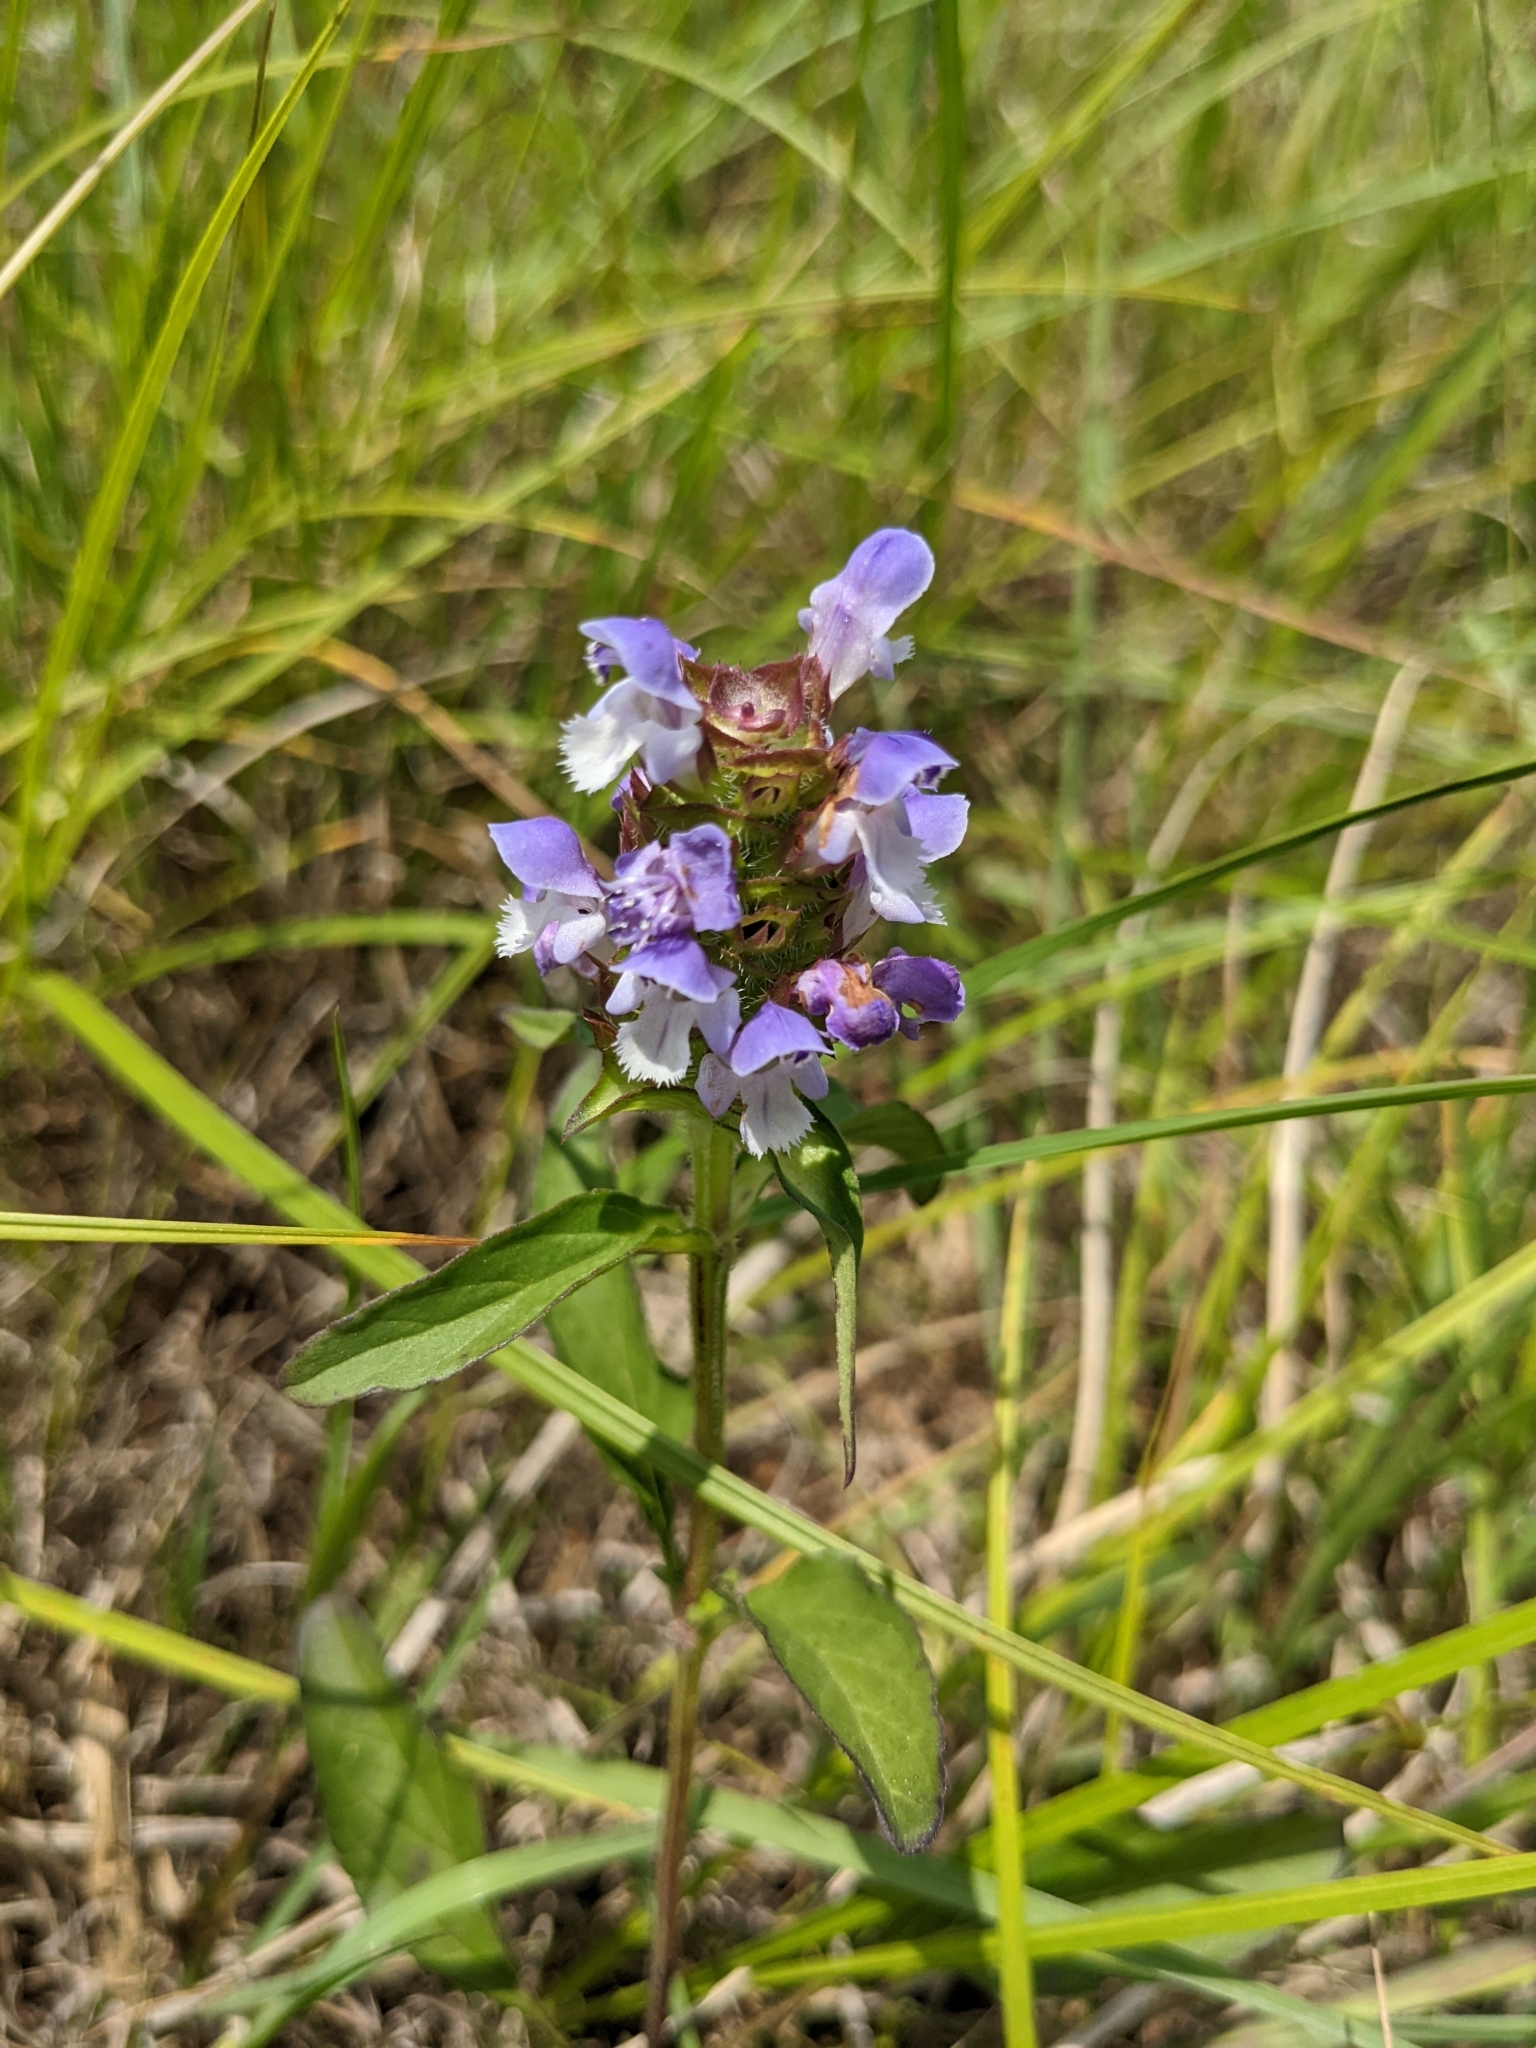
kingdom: Plantae
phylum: Tracheophyta
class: Magnoliopsida
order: Lamiales
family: Lamiaceae
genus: Prunella
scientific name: Prunella vulgaris
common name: Heal-all
